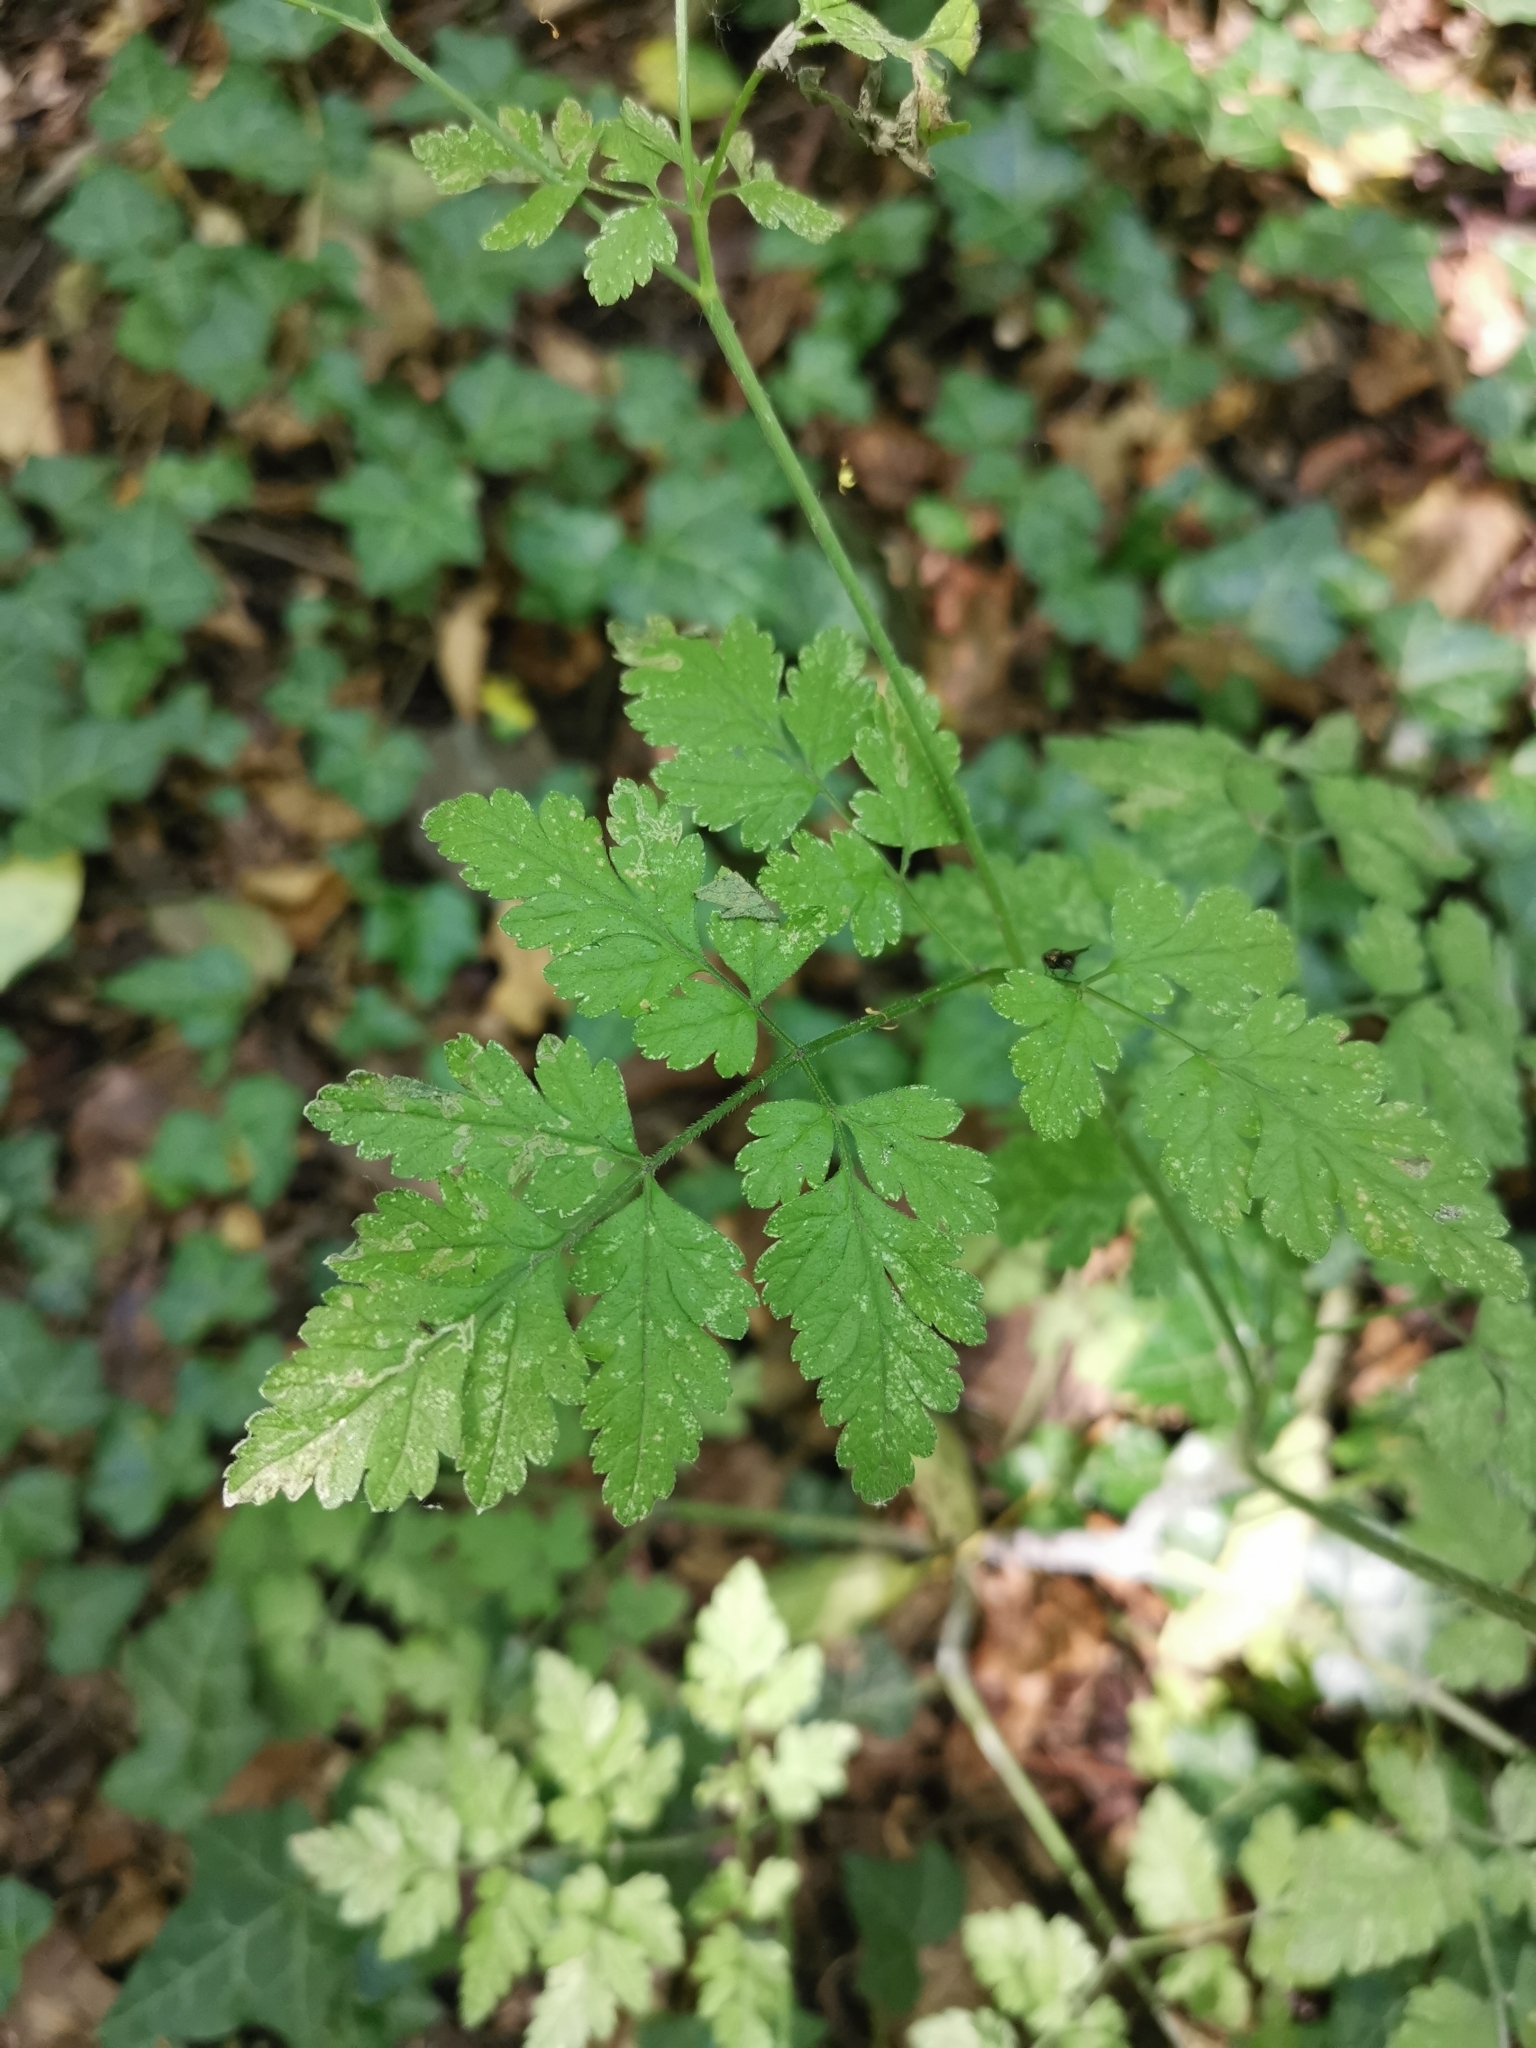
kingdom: Plantae
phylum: Tracheophyta
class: Magnoliopsida
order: Apiales
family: Apiaceae
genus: Chaerophyllum
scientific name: Chaerophyllum temulum
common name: Rough chervil
